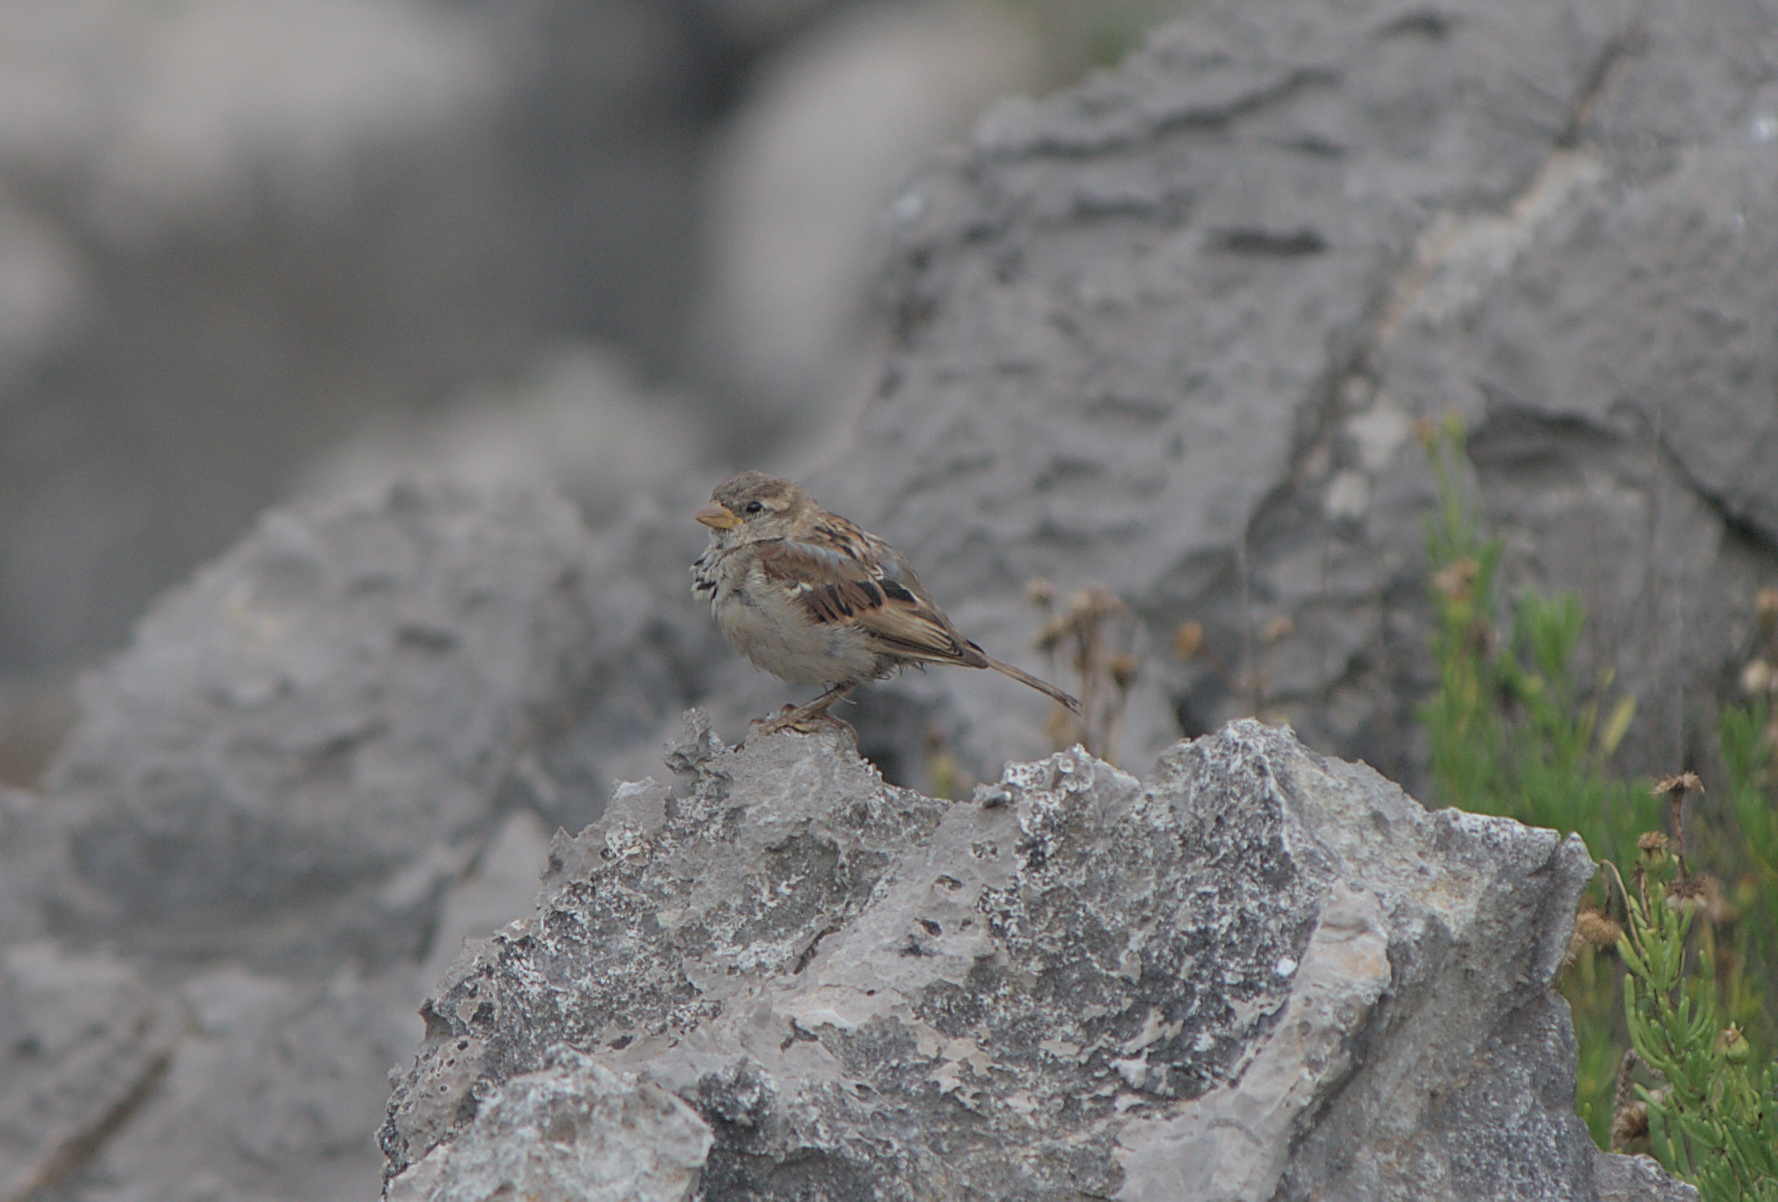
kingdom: Animalia
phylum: Chordata
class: Aves
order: Passeriformes
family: Passeridae
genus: Passer
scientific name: Passer domesticus
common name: House sparrow
